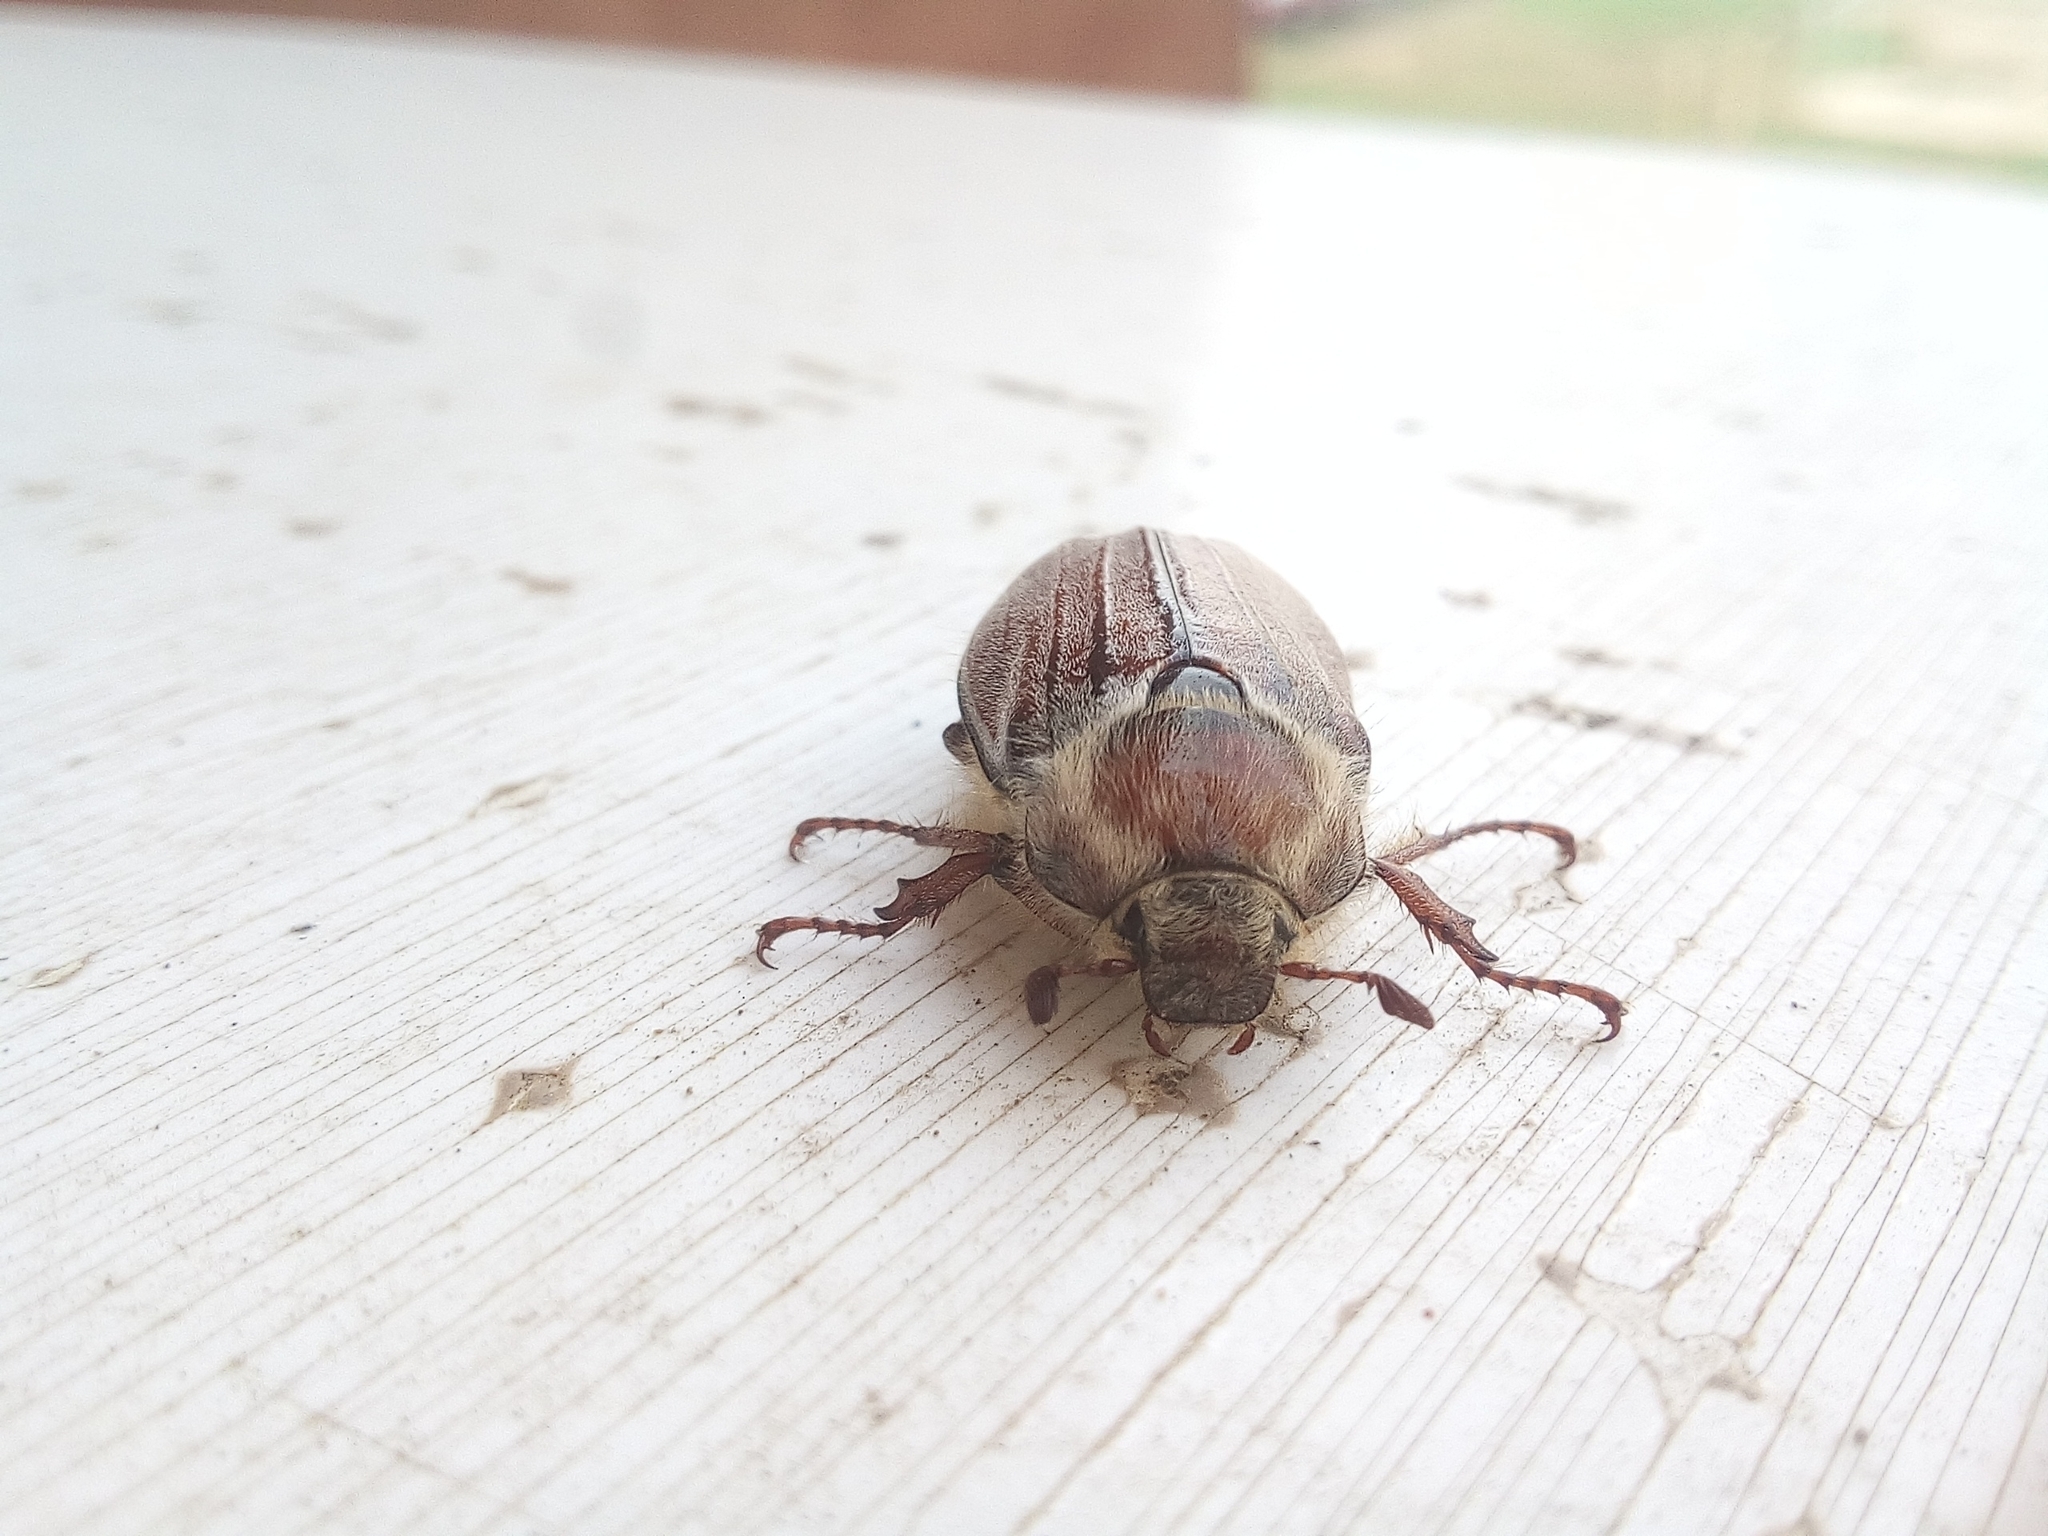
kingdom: Animalia
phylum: Arthropoda
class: Insecta
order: Coleoptera
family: Scarabaeidae
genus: Melolontha
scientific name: Melolontha hippocastani
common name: Chestnut cockchafer
